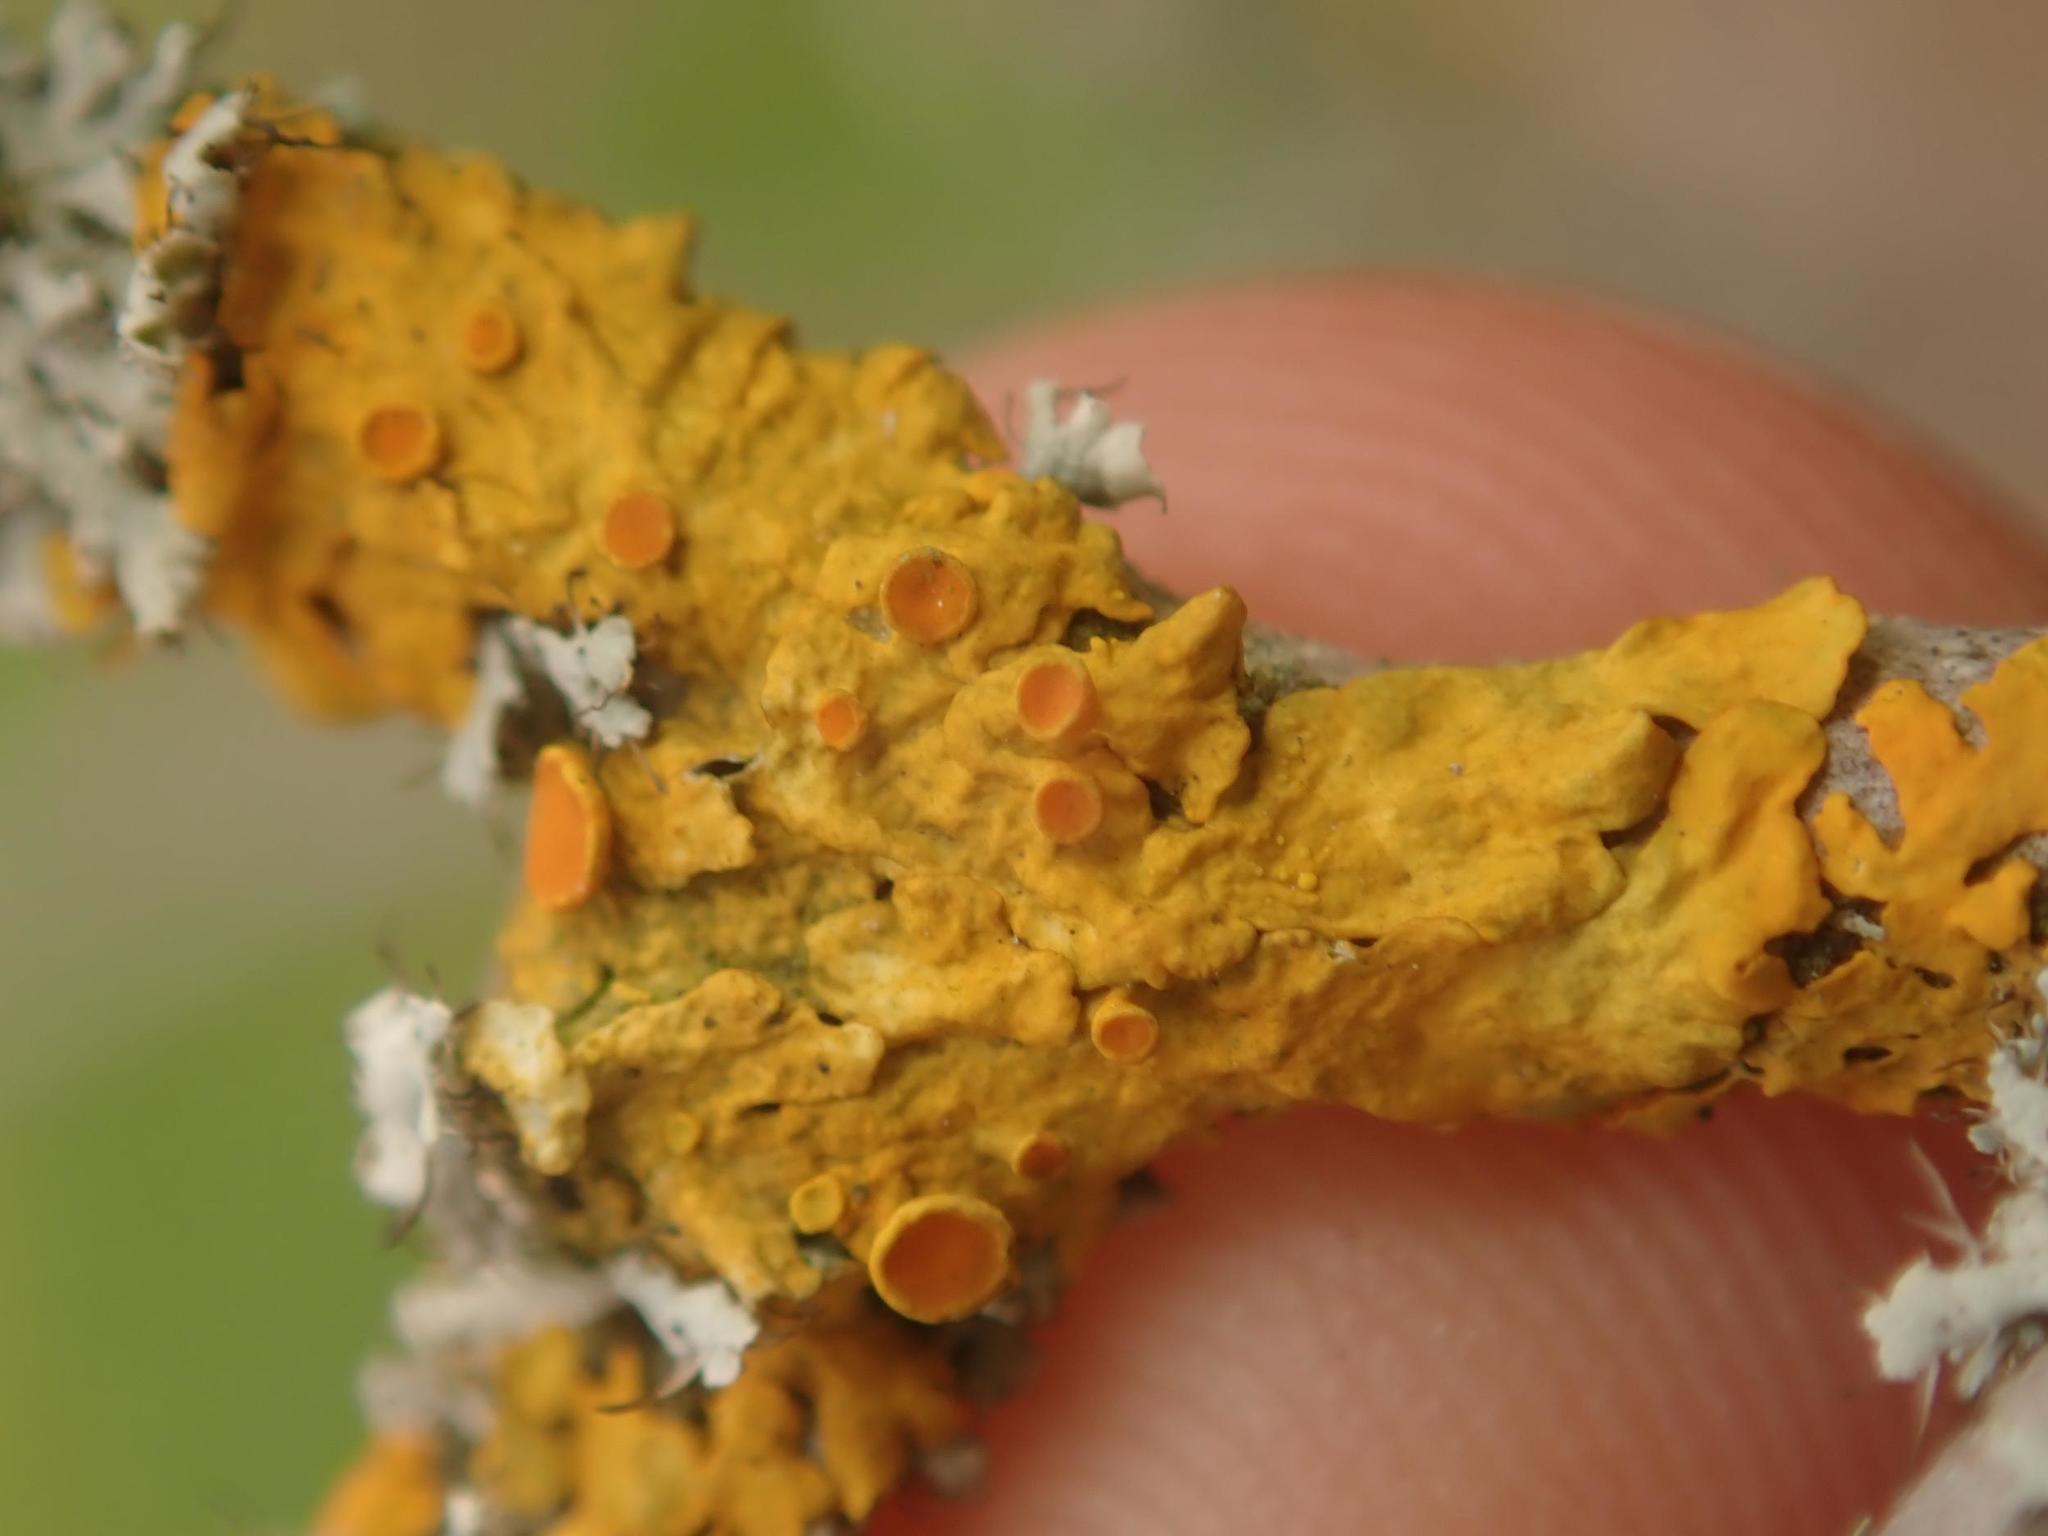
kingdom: Fungi
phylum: Ascomycota
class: Lecanoromycetes
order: Teloschistales
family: Teloschistaceae
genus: Xanthoria
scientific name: Xanthoria parietina
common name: Common orange lichen
